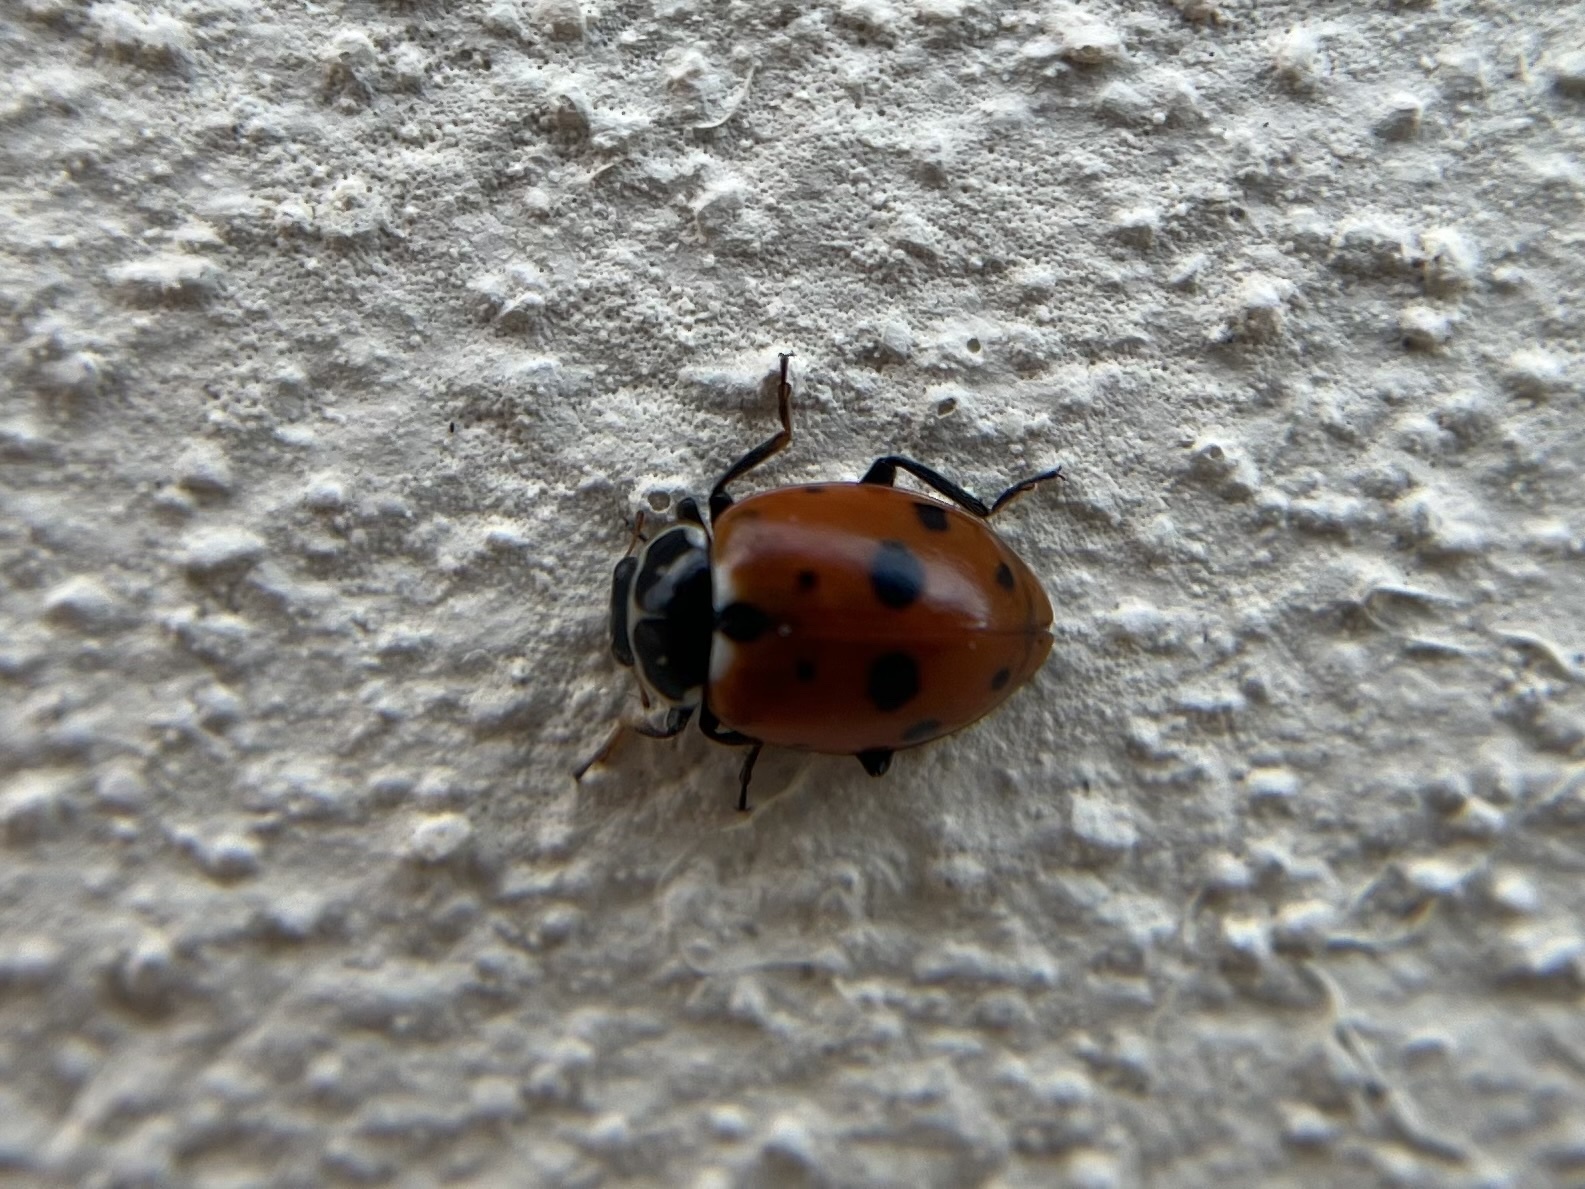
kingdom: Animalia
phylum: Arthropoda
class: Insecta
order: Coleoptera
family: Coccinellidae
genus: Hippodamia
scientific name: Hippodamia variegata
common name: Ladybird beetle
